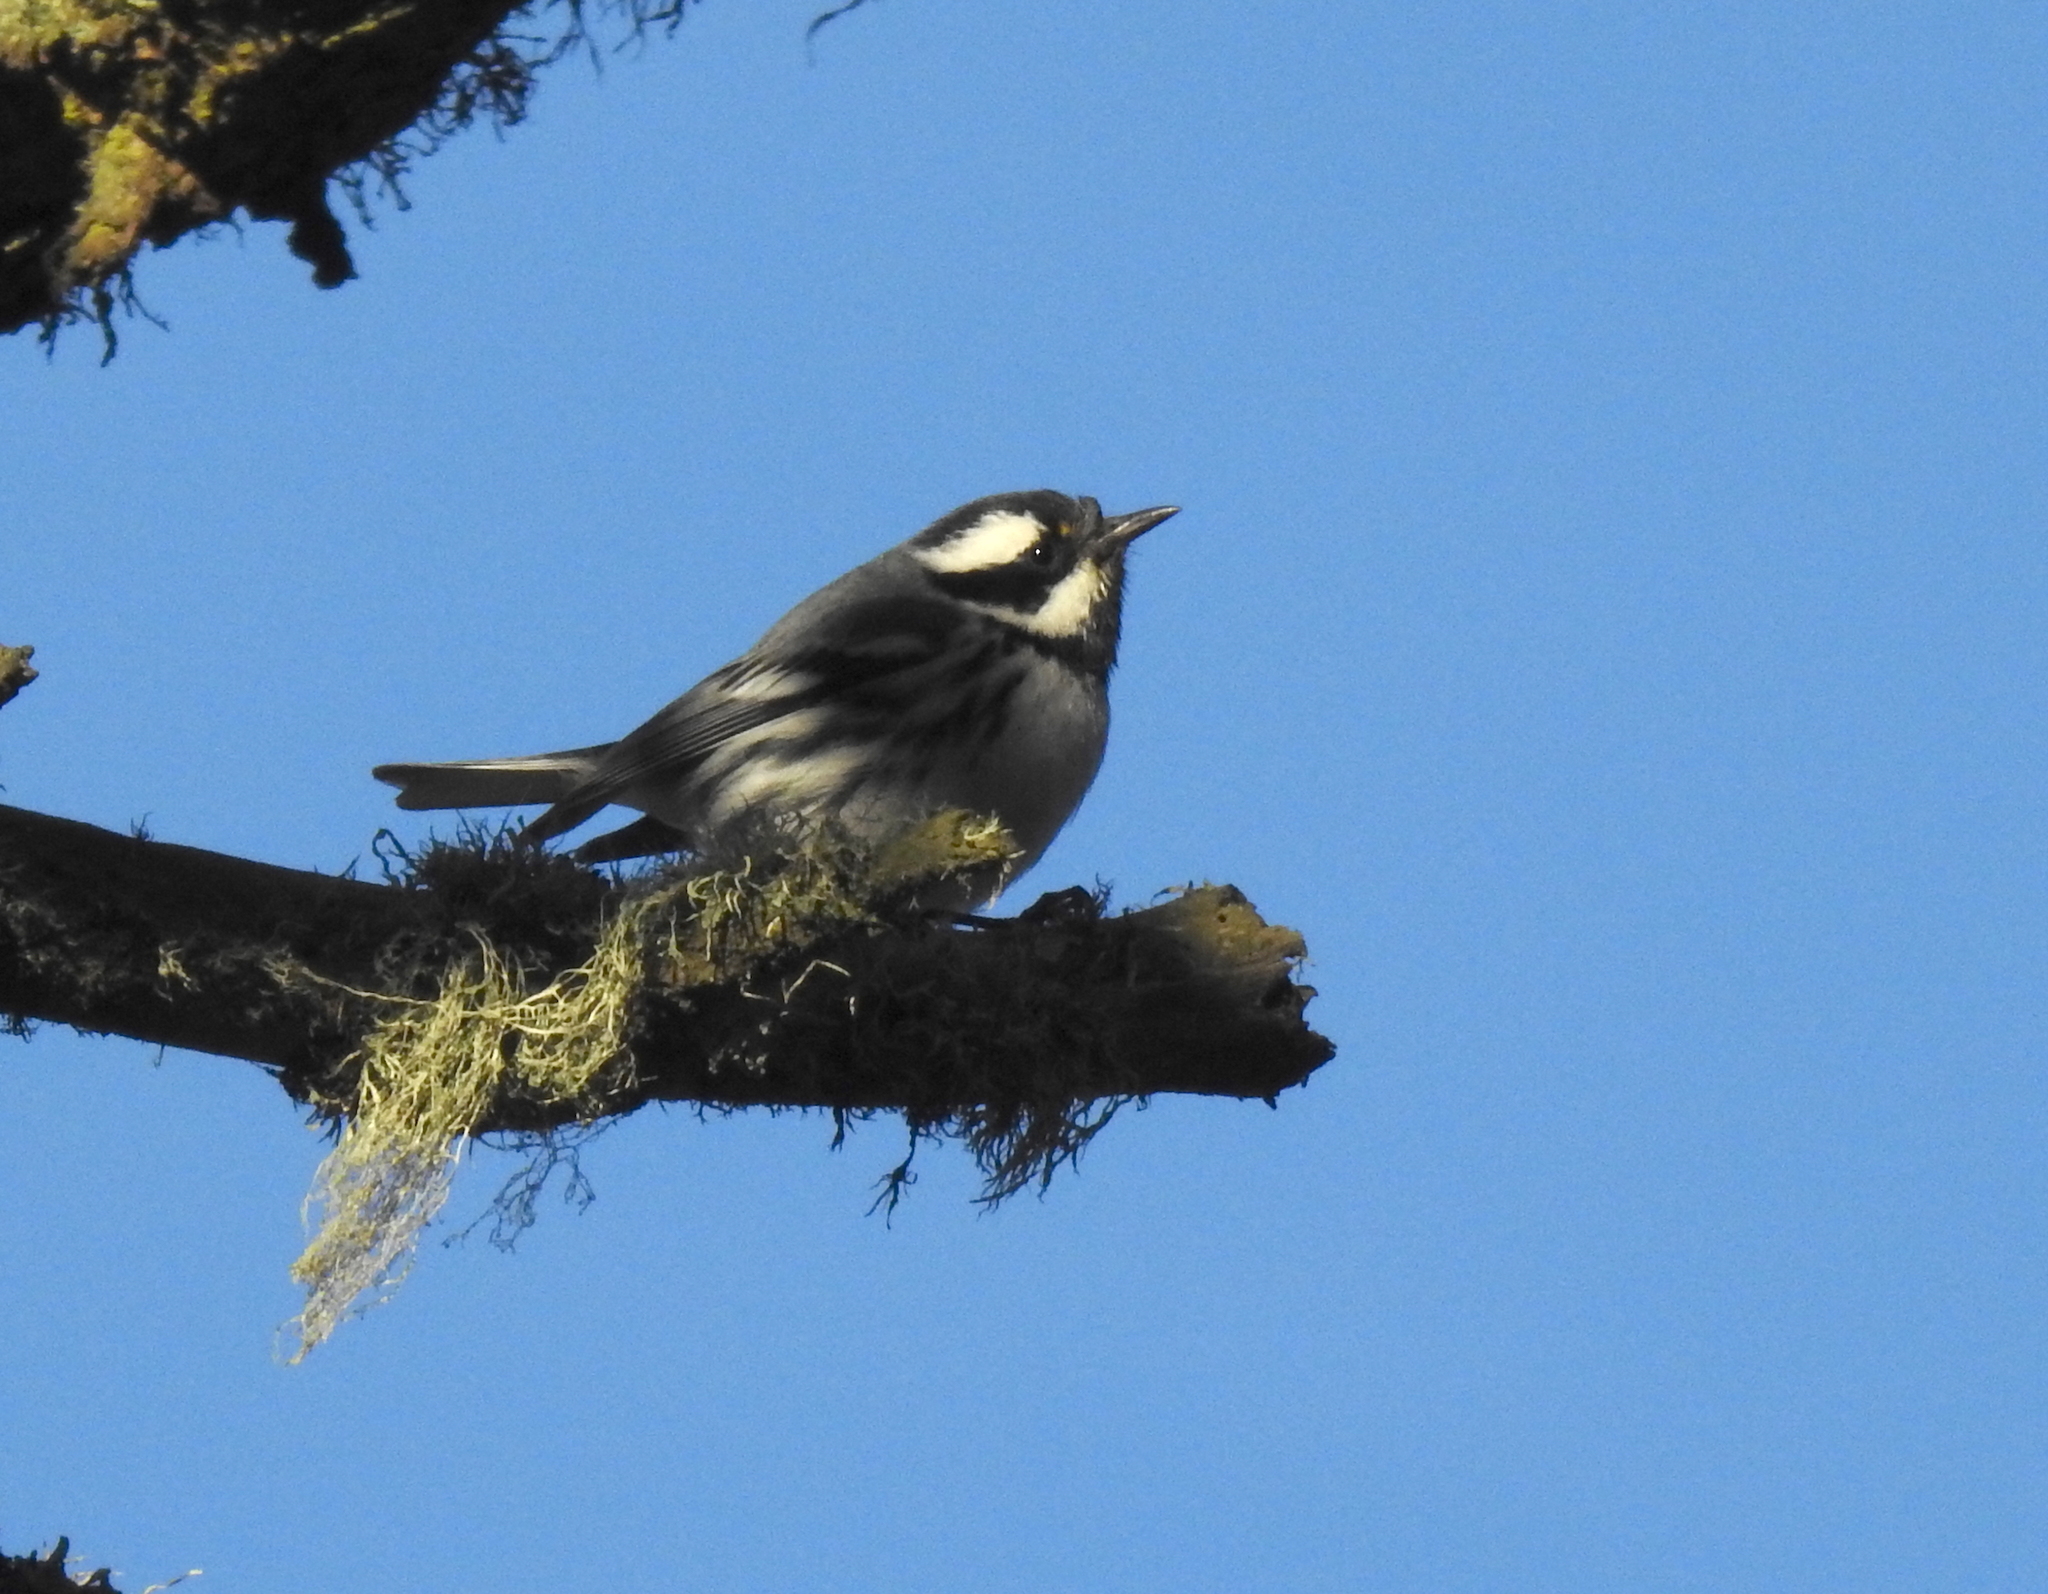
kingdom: Animalia
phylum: Chordata
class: Aves
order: Passeriformes
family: Parulidae
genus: Setophaga
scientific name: Setophaga nigrescens
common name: Black-throated gray warbler
